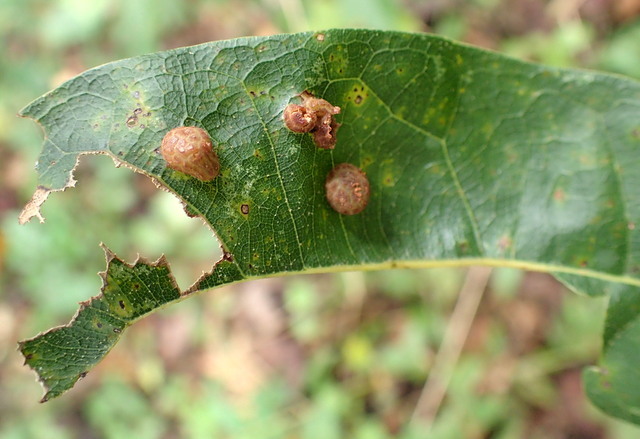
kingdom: Animalia
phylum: Arthropoda
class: Insecta
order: Diptera
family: Cecidomyiidae
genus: Polystepha
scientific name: Polystepha pilulae
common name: Oak leaf gall midge
